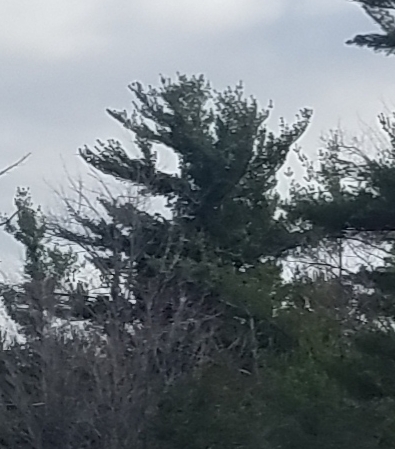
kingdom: Plantae
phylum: Tracheophyta
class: Pinopsida
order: Pinales
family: Pinaceae
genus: Pinus
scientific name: Pinus strobus
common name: Weymouth pine
